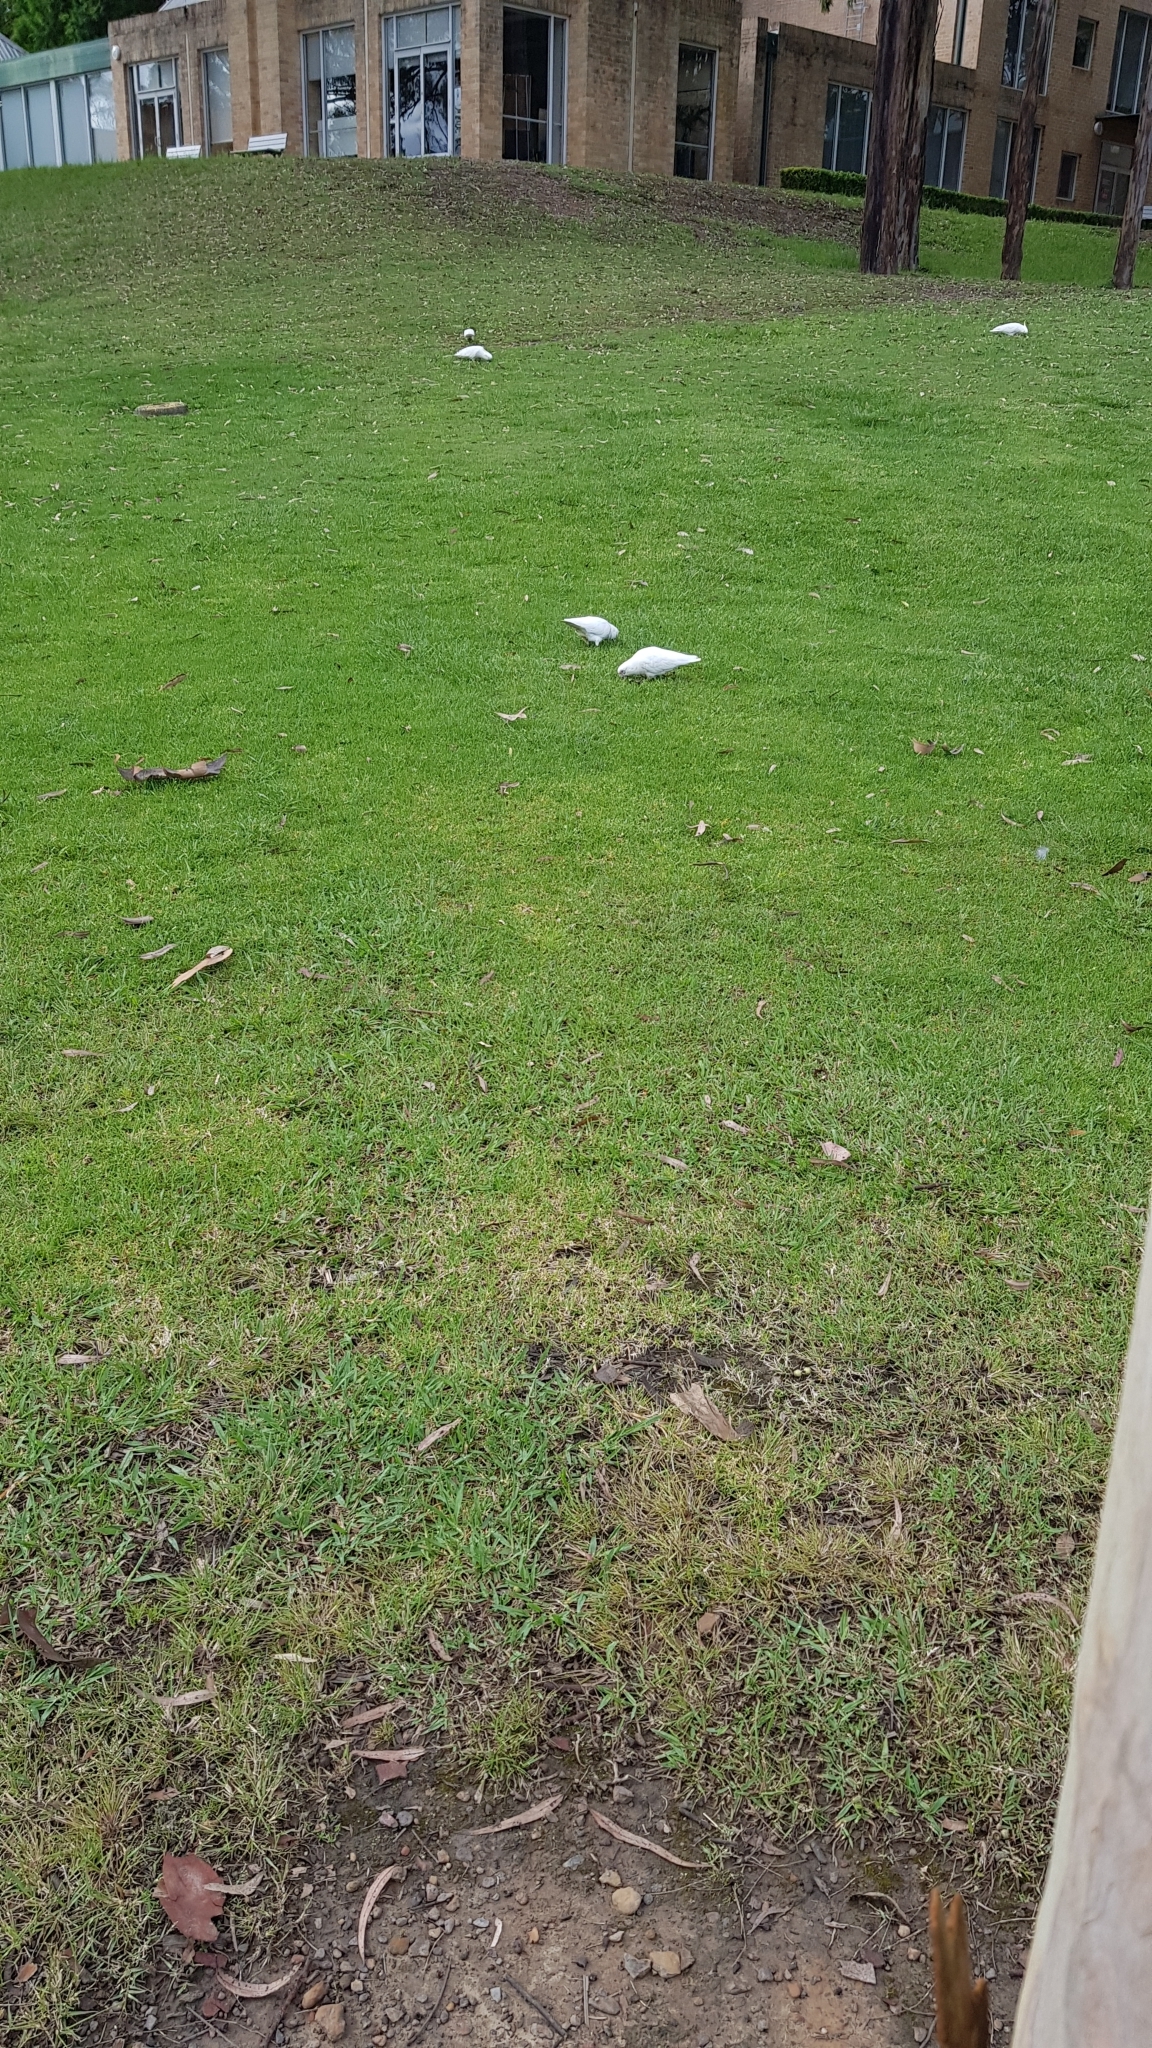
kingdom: Animalia
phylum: Chordata
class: Aves
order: Psittaciformes
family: Psittacidae
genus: Cacatua
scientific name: Cacatua sanguinea
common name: Little corella
